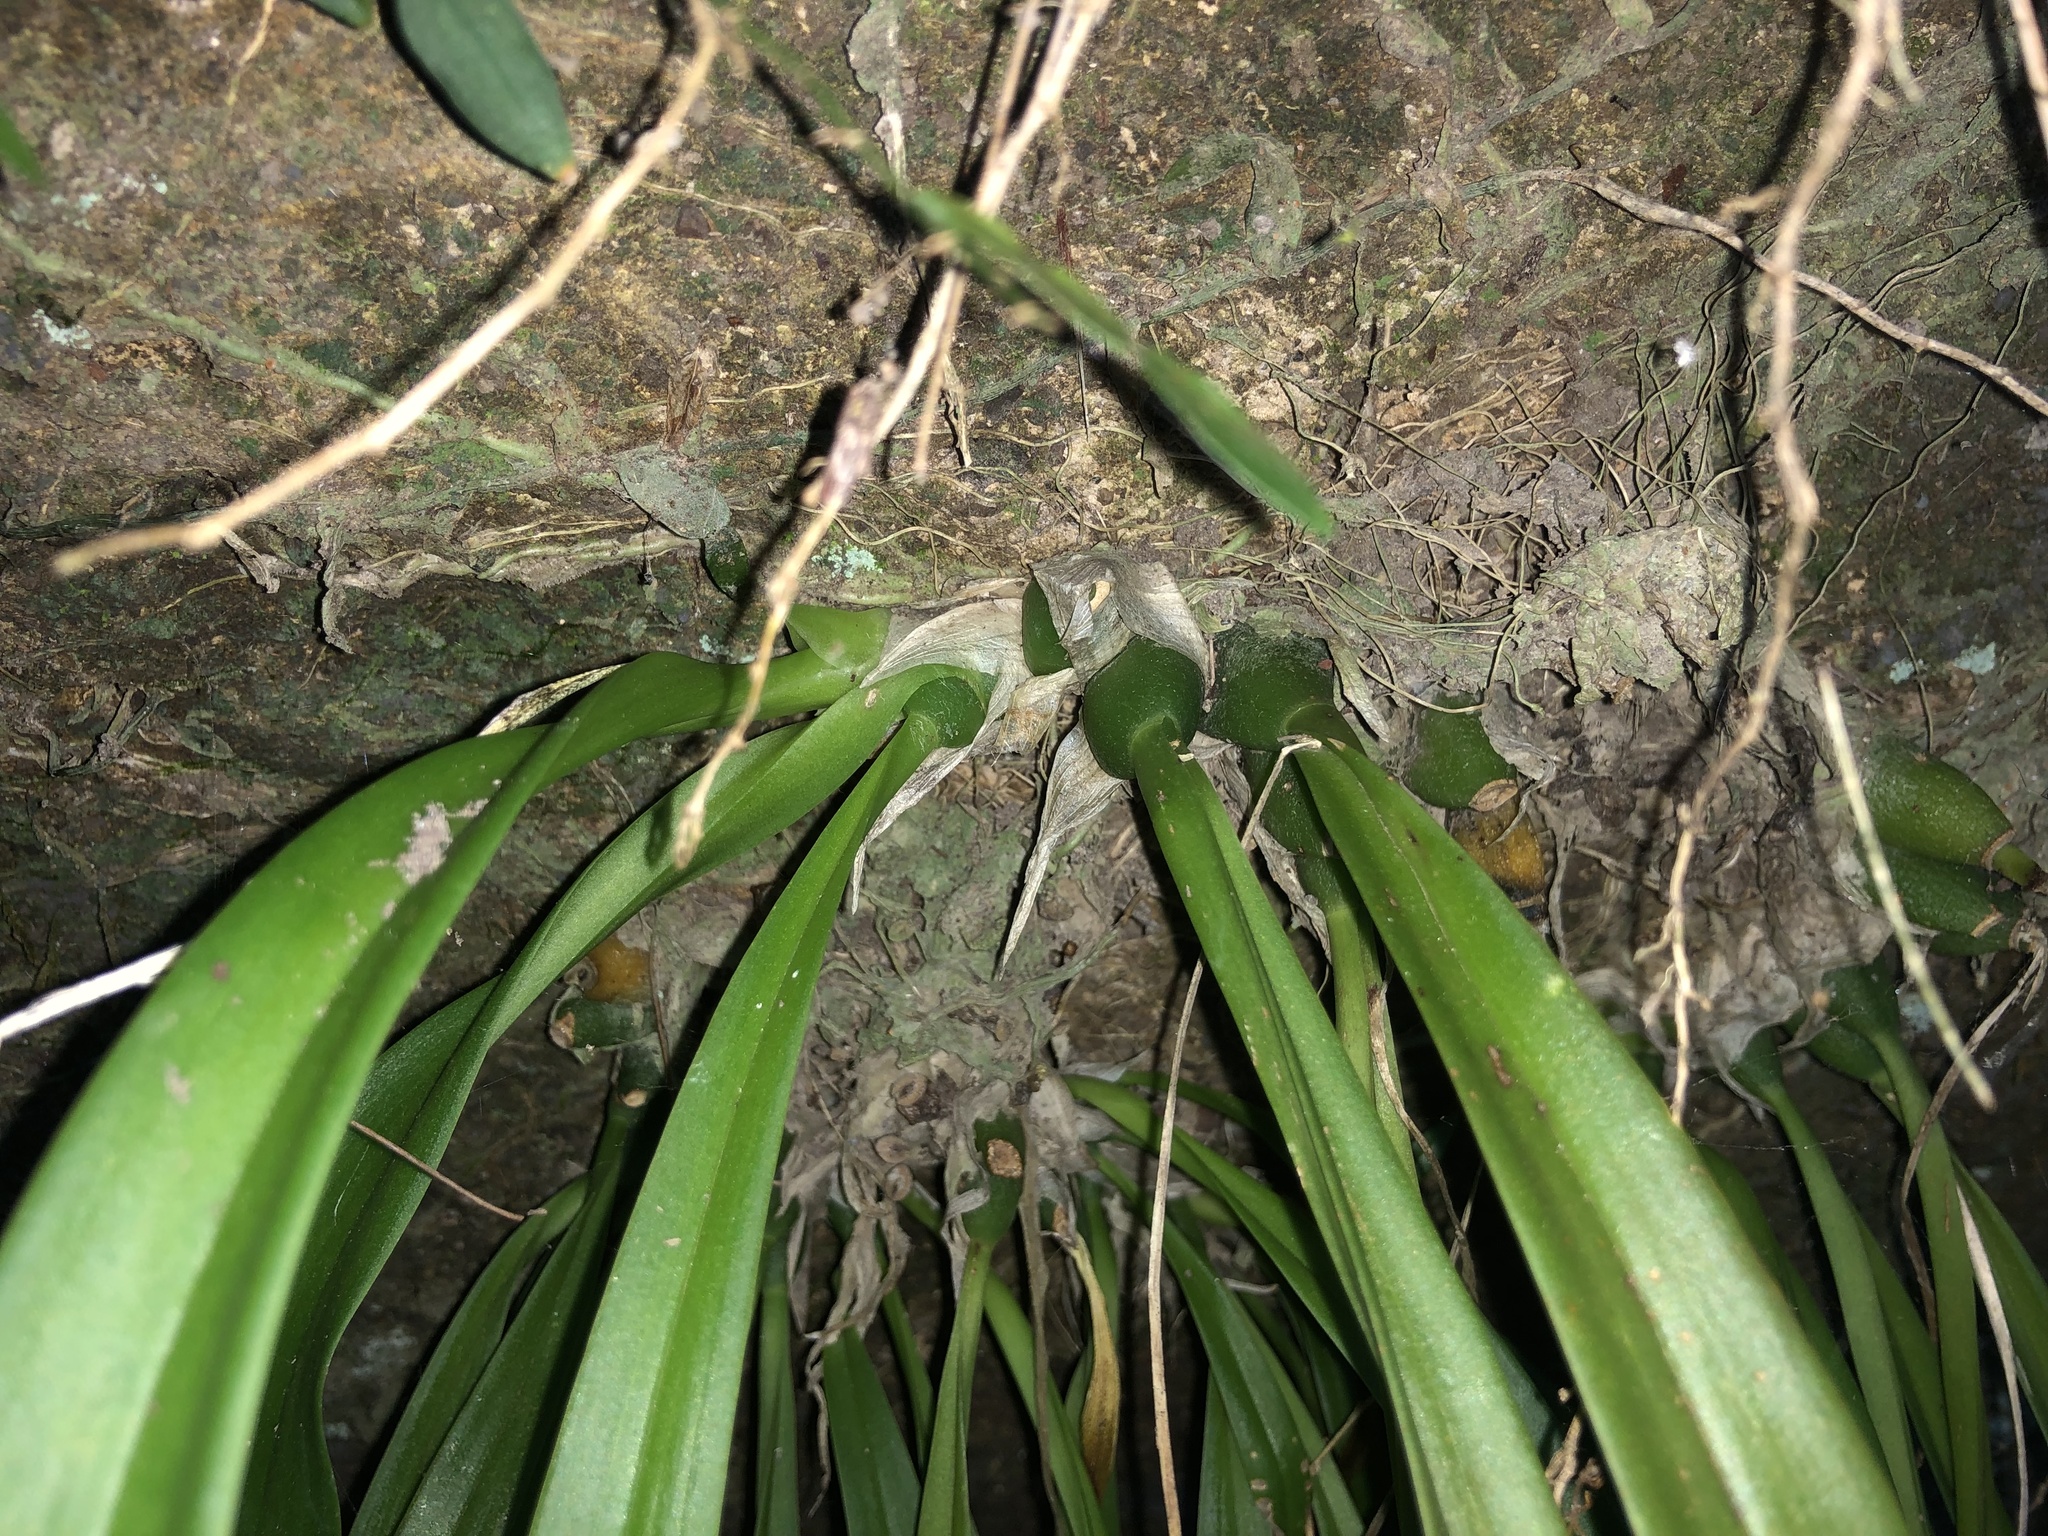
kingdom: Plantae
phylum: Tracheophyta
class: Liliopsida
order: Asparagales
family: Orchidaceae
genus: Liparis
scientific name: Liparis swenssonii
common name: Northern tom cat
